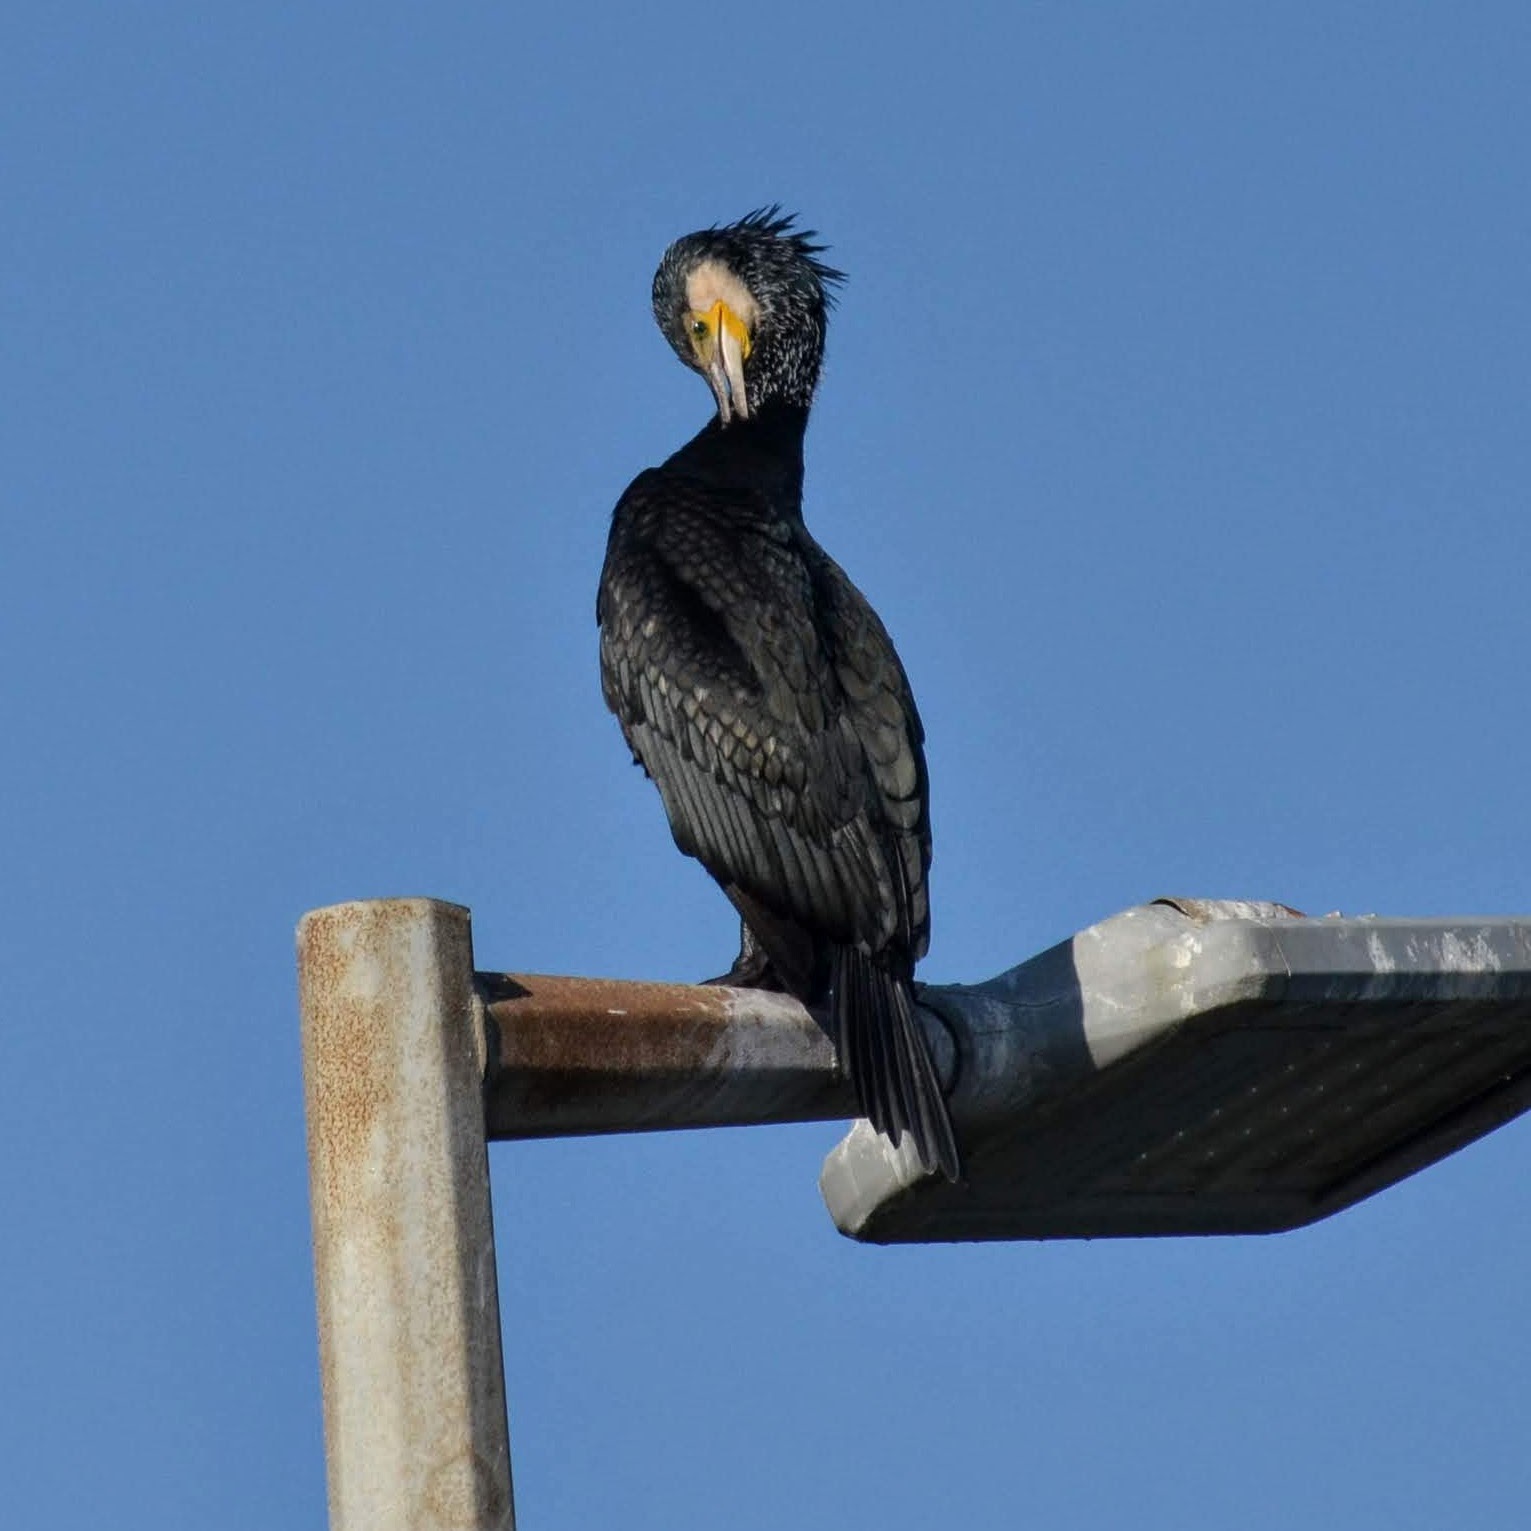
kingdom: Animalia
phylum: Chordata
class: Aves
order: Suliformes
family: Phalacrocoracidae
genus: Phalacrocorax
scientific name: Phalacrocorax carbo
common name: Great cormorant
